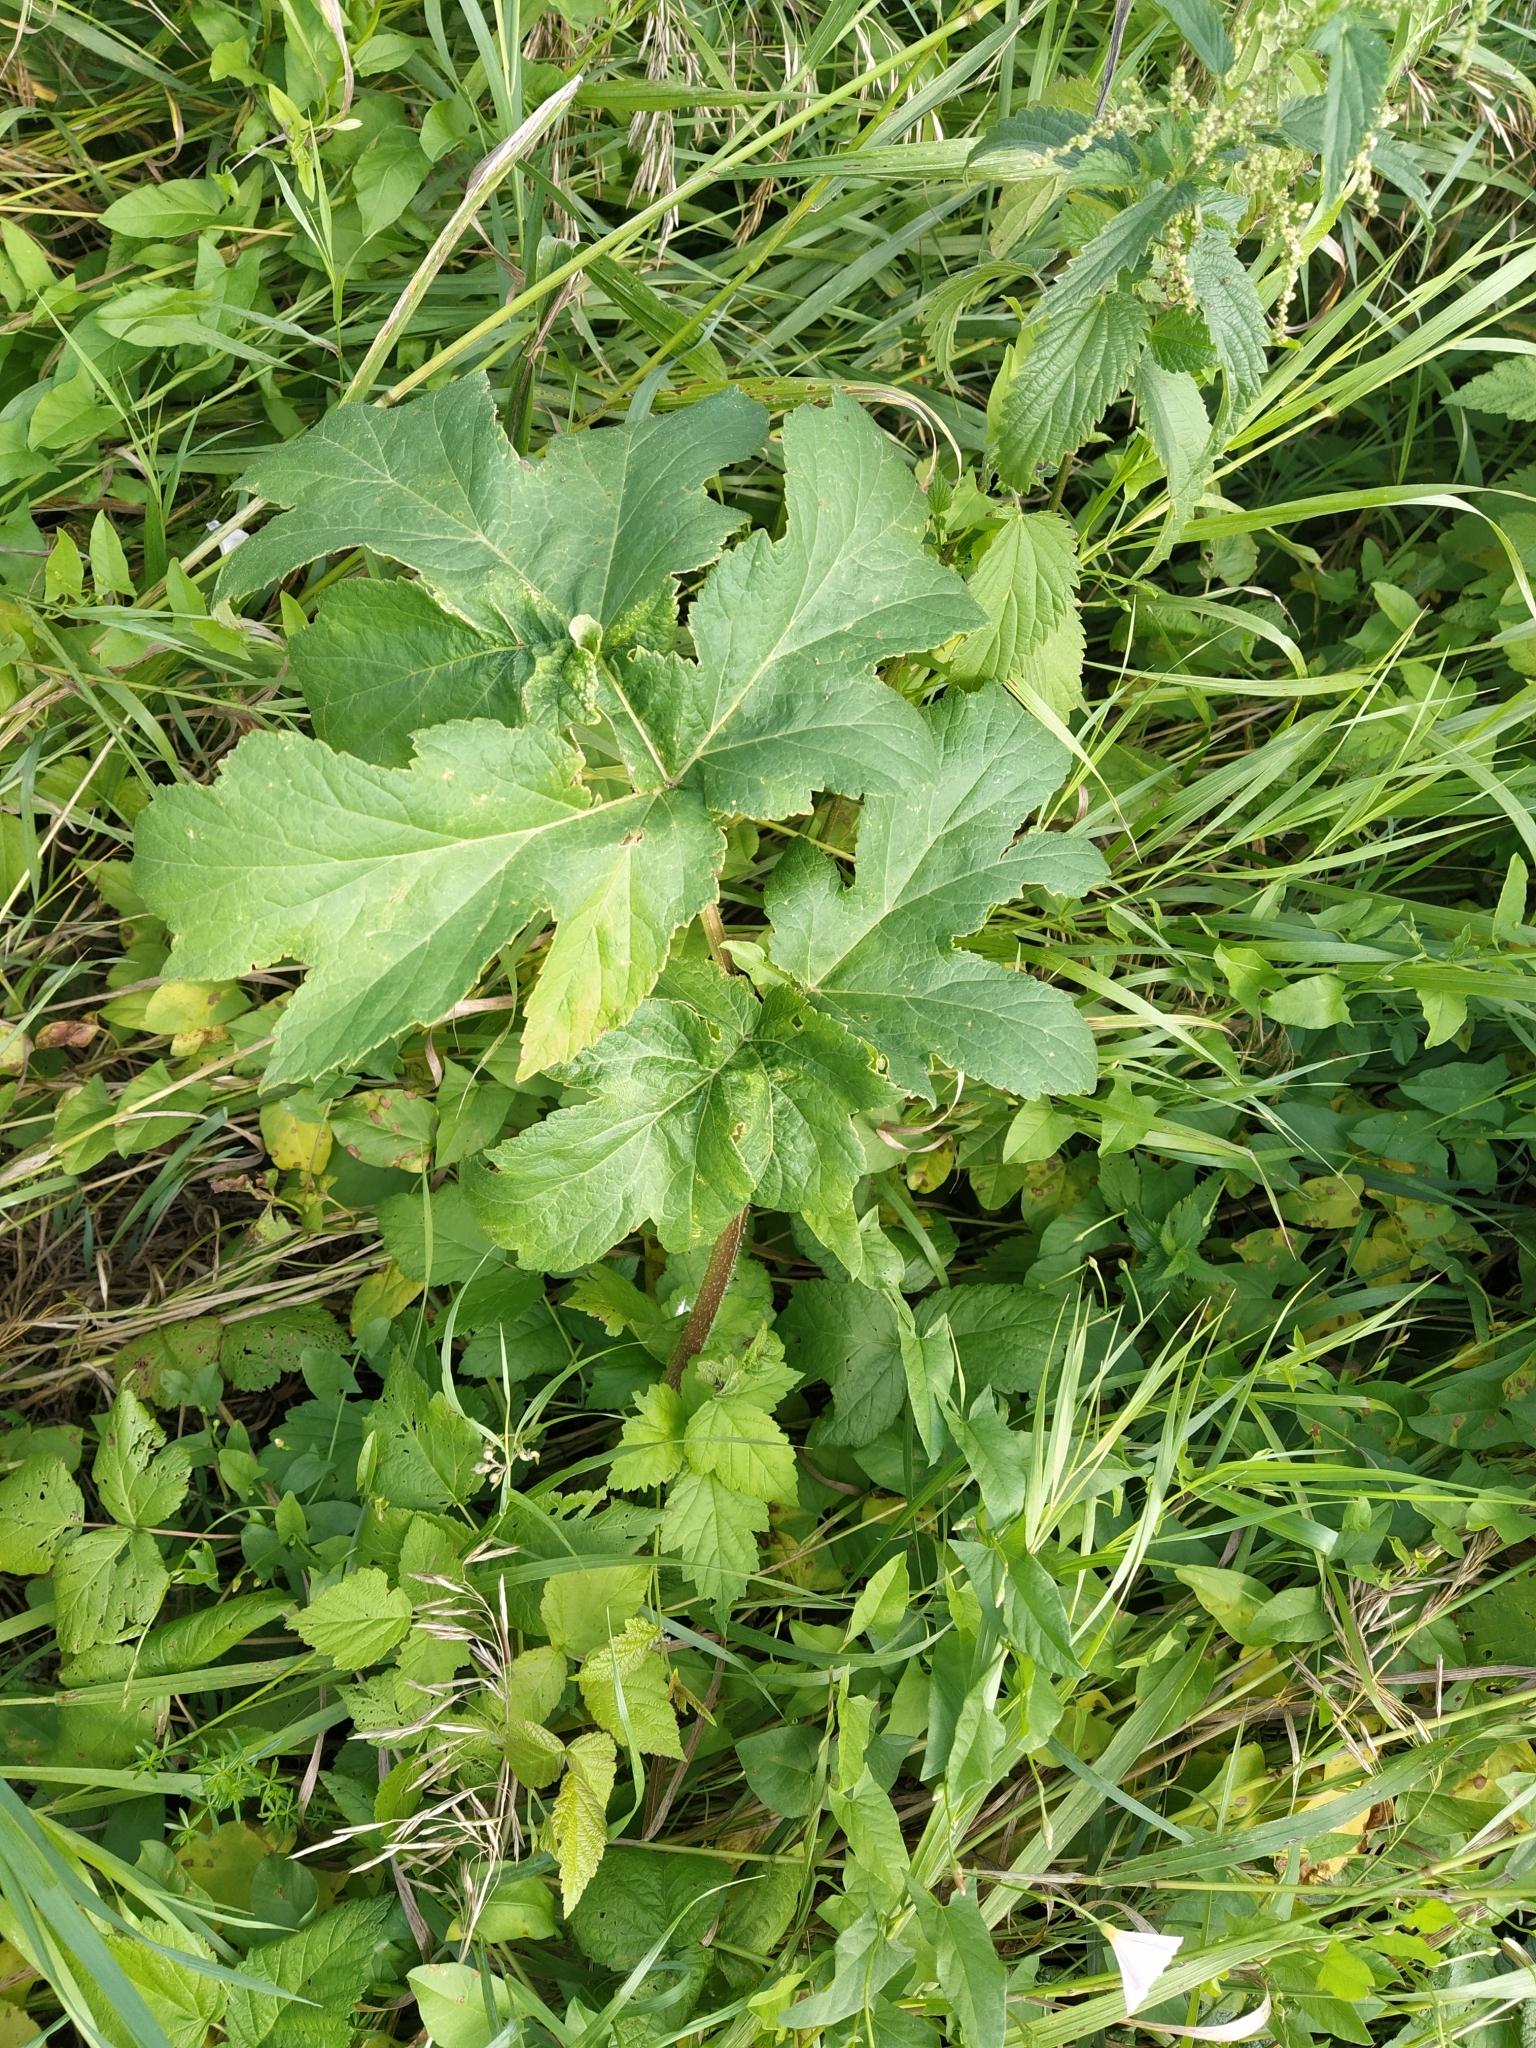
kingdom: Plantae
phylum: Tracheophyta
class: Magnoliopsida
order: Apiales
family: Apiaceae
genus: Heracleum
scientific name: Heracleum sphondylium
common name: Hogweed
